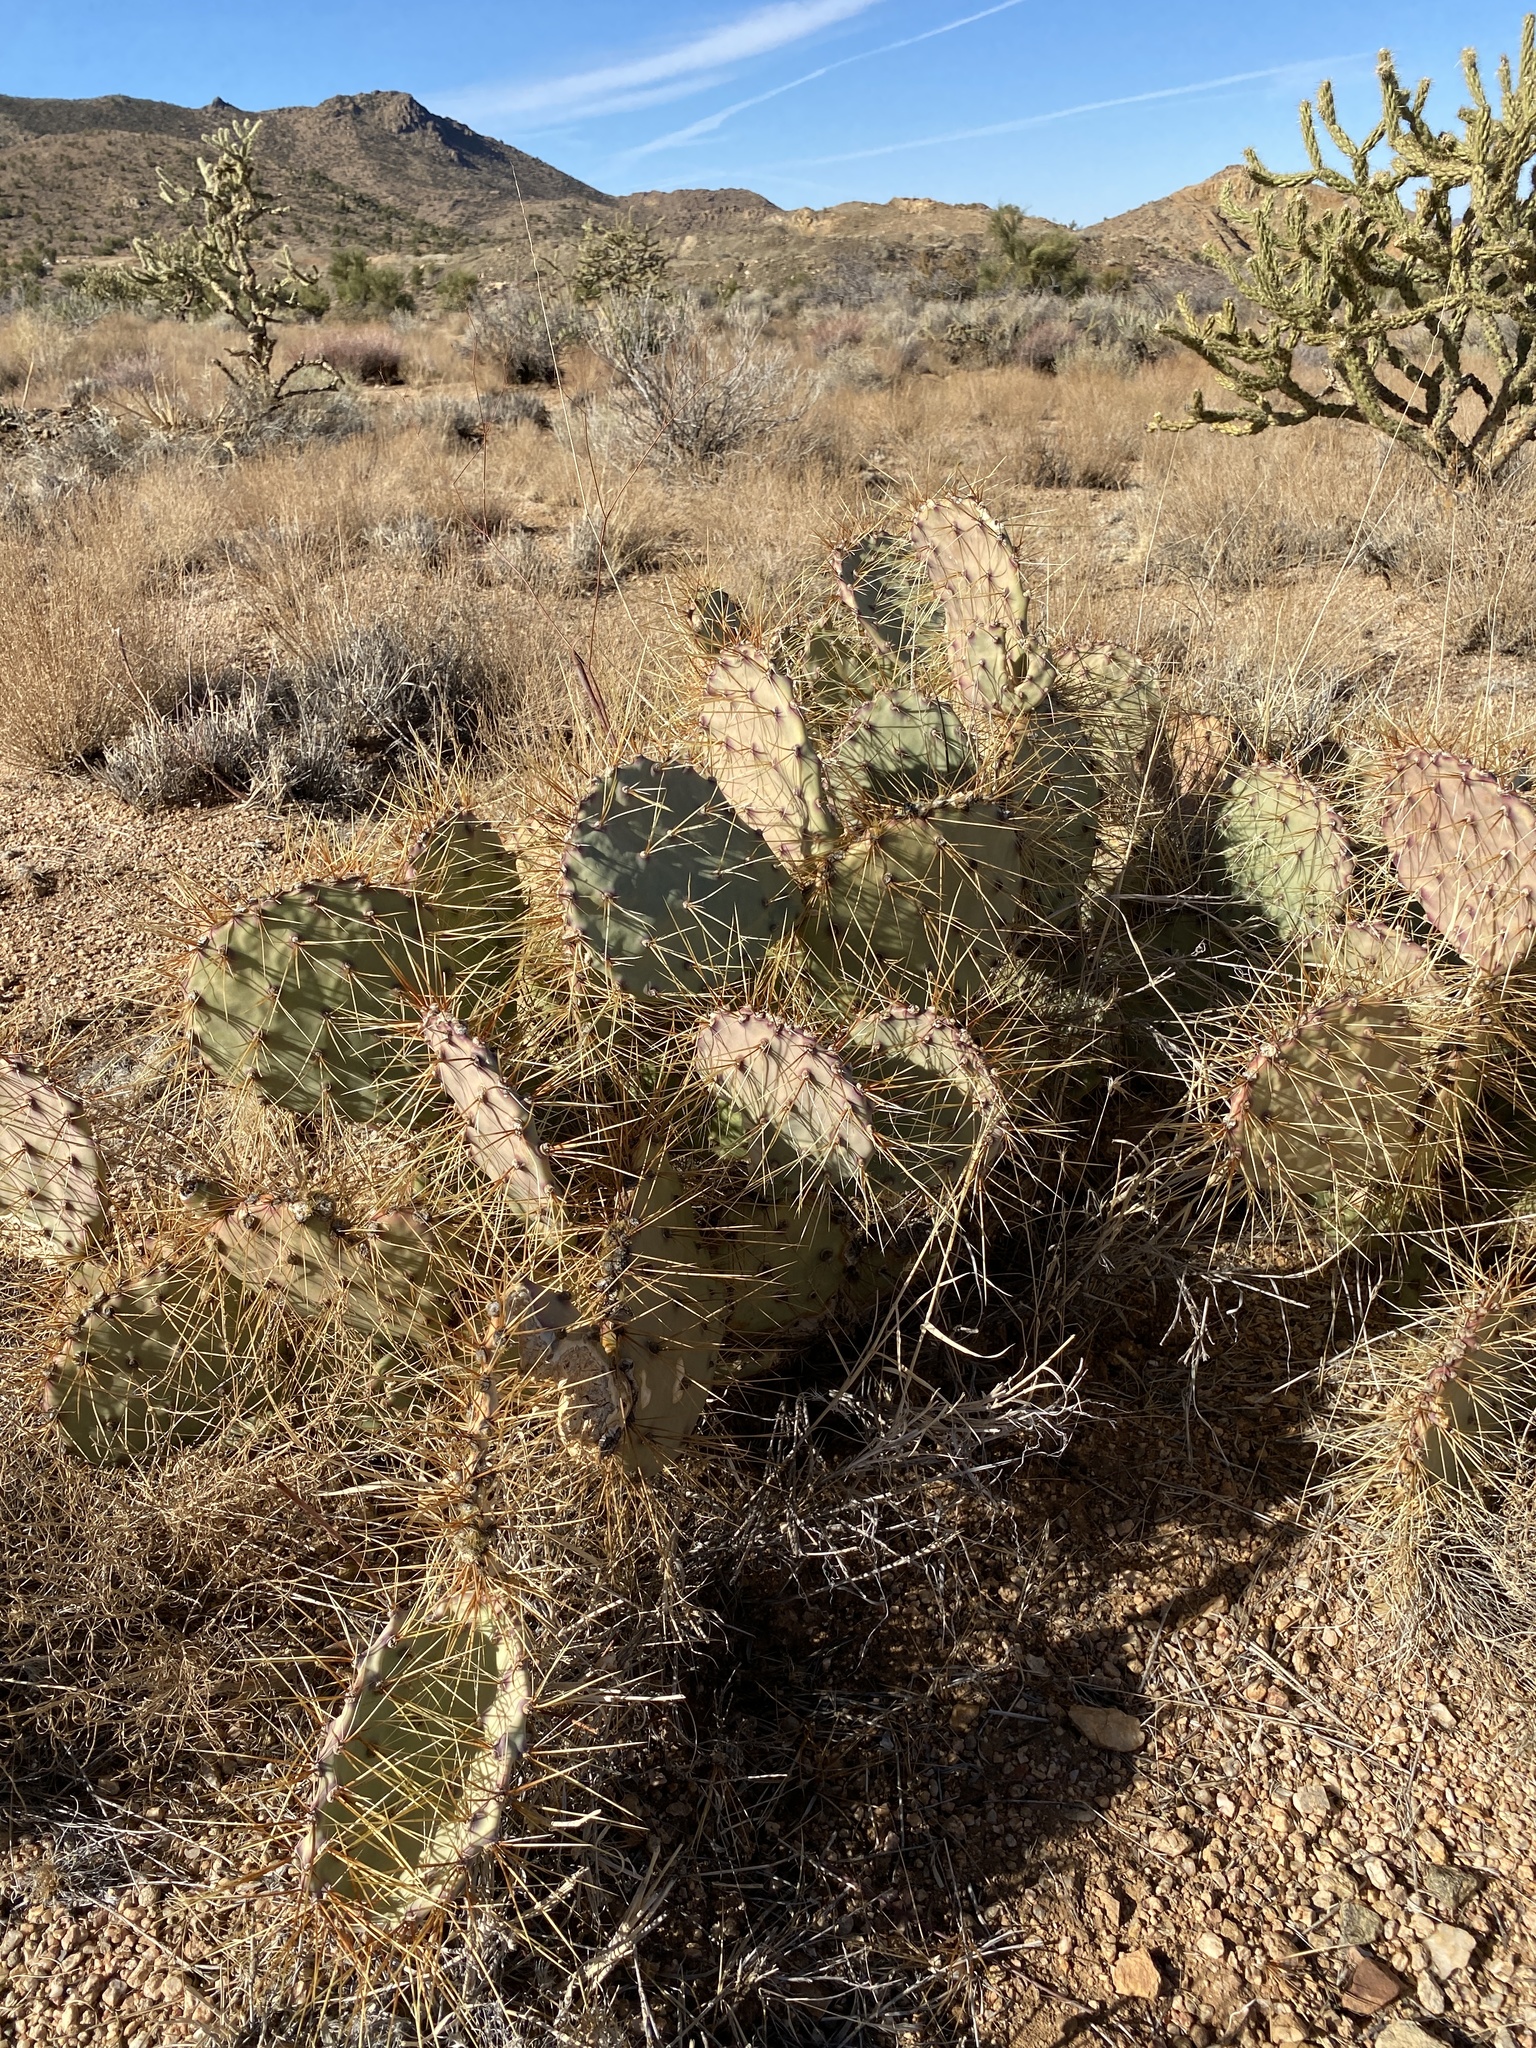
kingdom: Plantae
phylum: Tracheophyta
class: Magnoliopsida
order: Caryophyllales
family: Cactaceae
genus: Opuntia
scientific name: Opuntia phaeacantha
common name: New mexico prickly-pear
